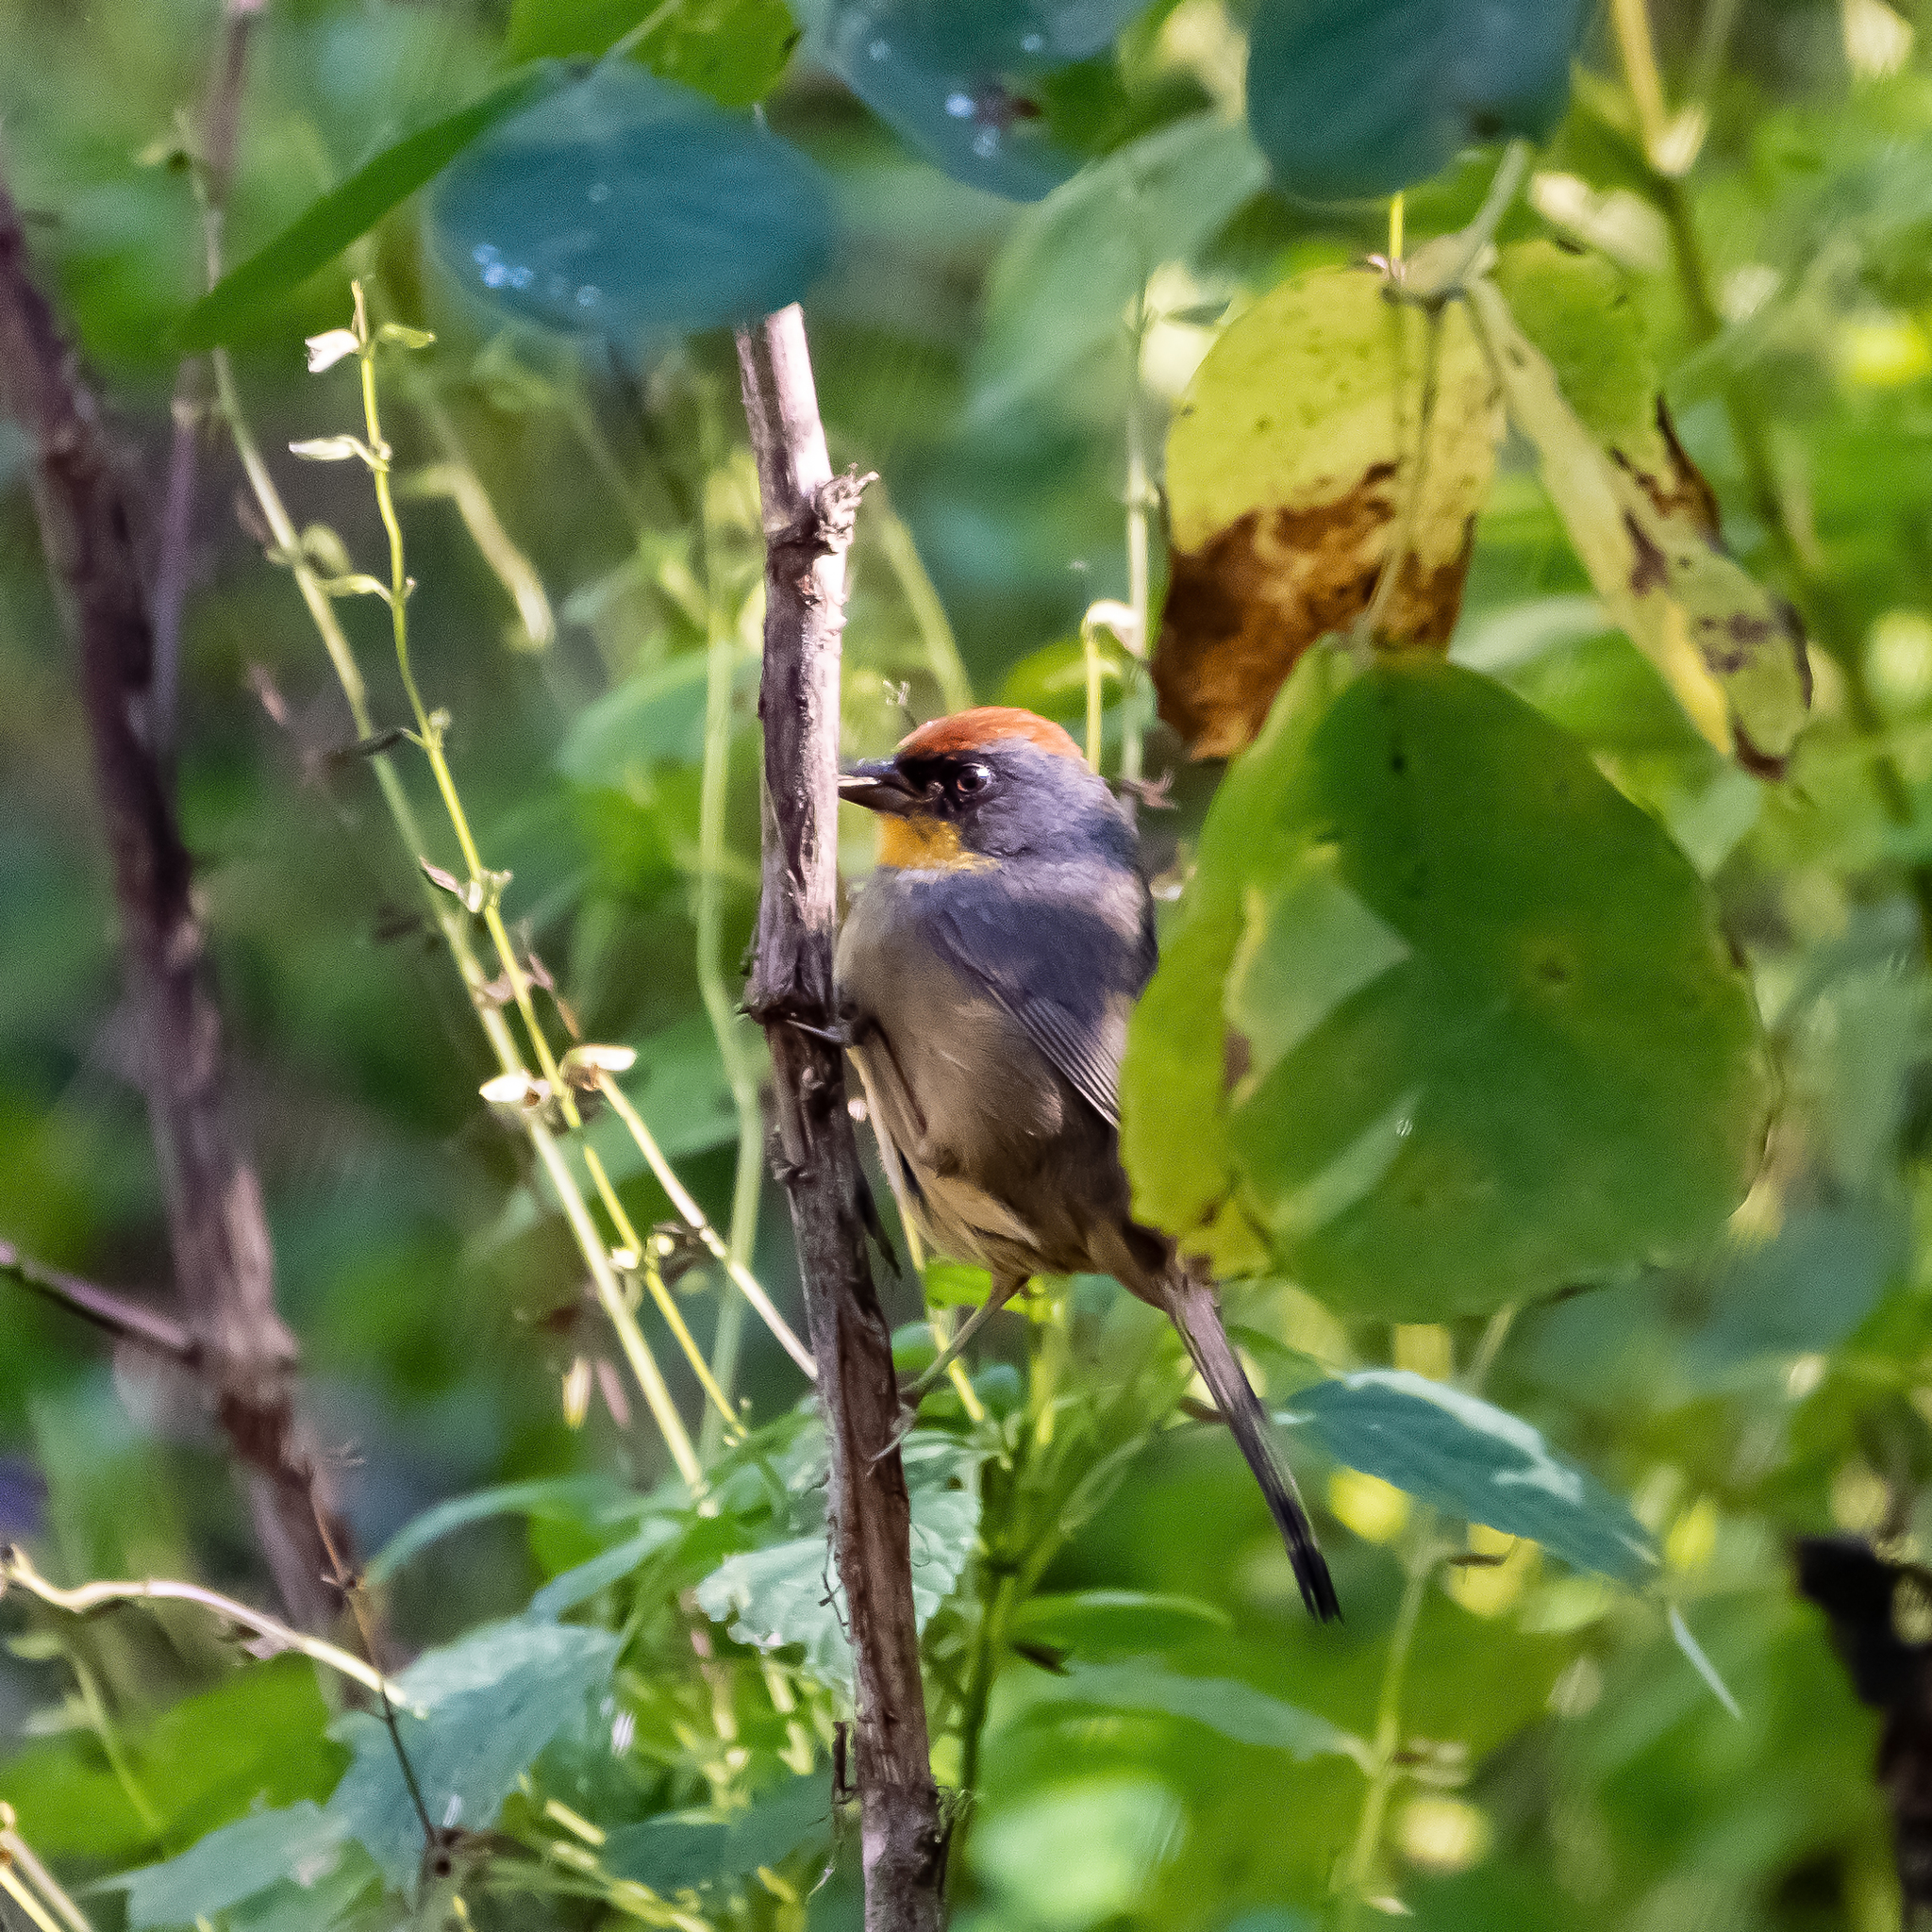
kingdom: Animalia
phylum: Chordata
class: Aves
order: Passeriformes
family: Passerellidae
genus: Atlapetes
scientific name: Atlapetes pileatus
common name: Rufous-capped brush-finch
